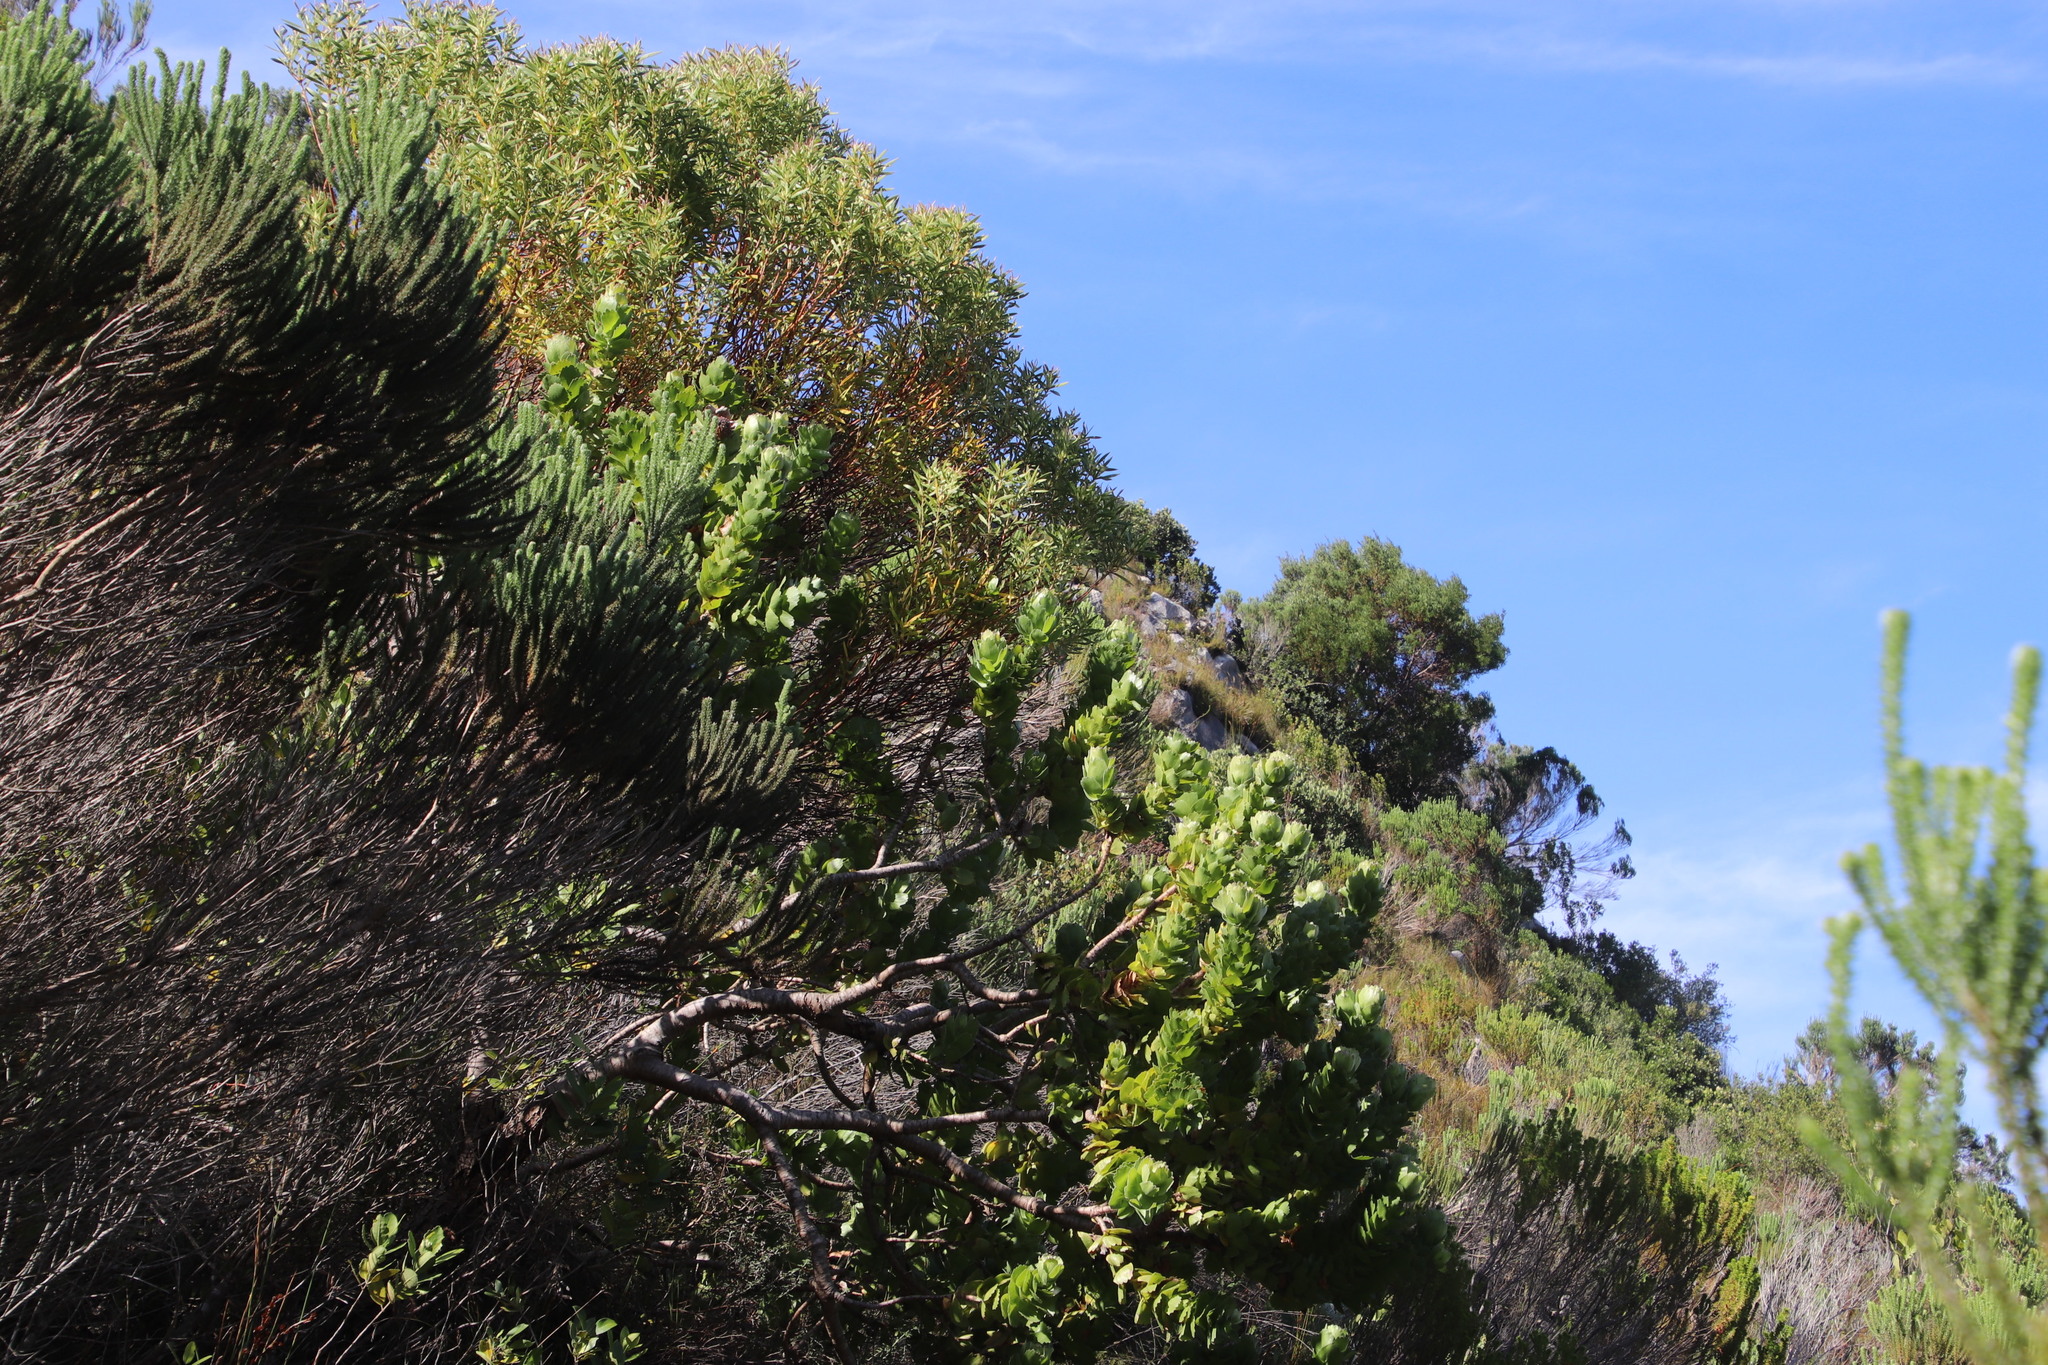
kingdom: Plantae
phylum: Tracheophyta
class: Magnoliopsida
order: Proteales
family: Proteaceae
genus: Leucospermum
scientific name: Leucospermum patersonii
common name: False tree pincushion
